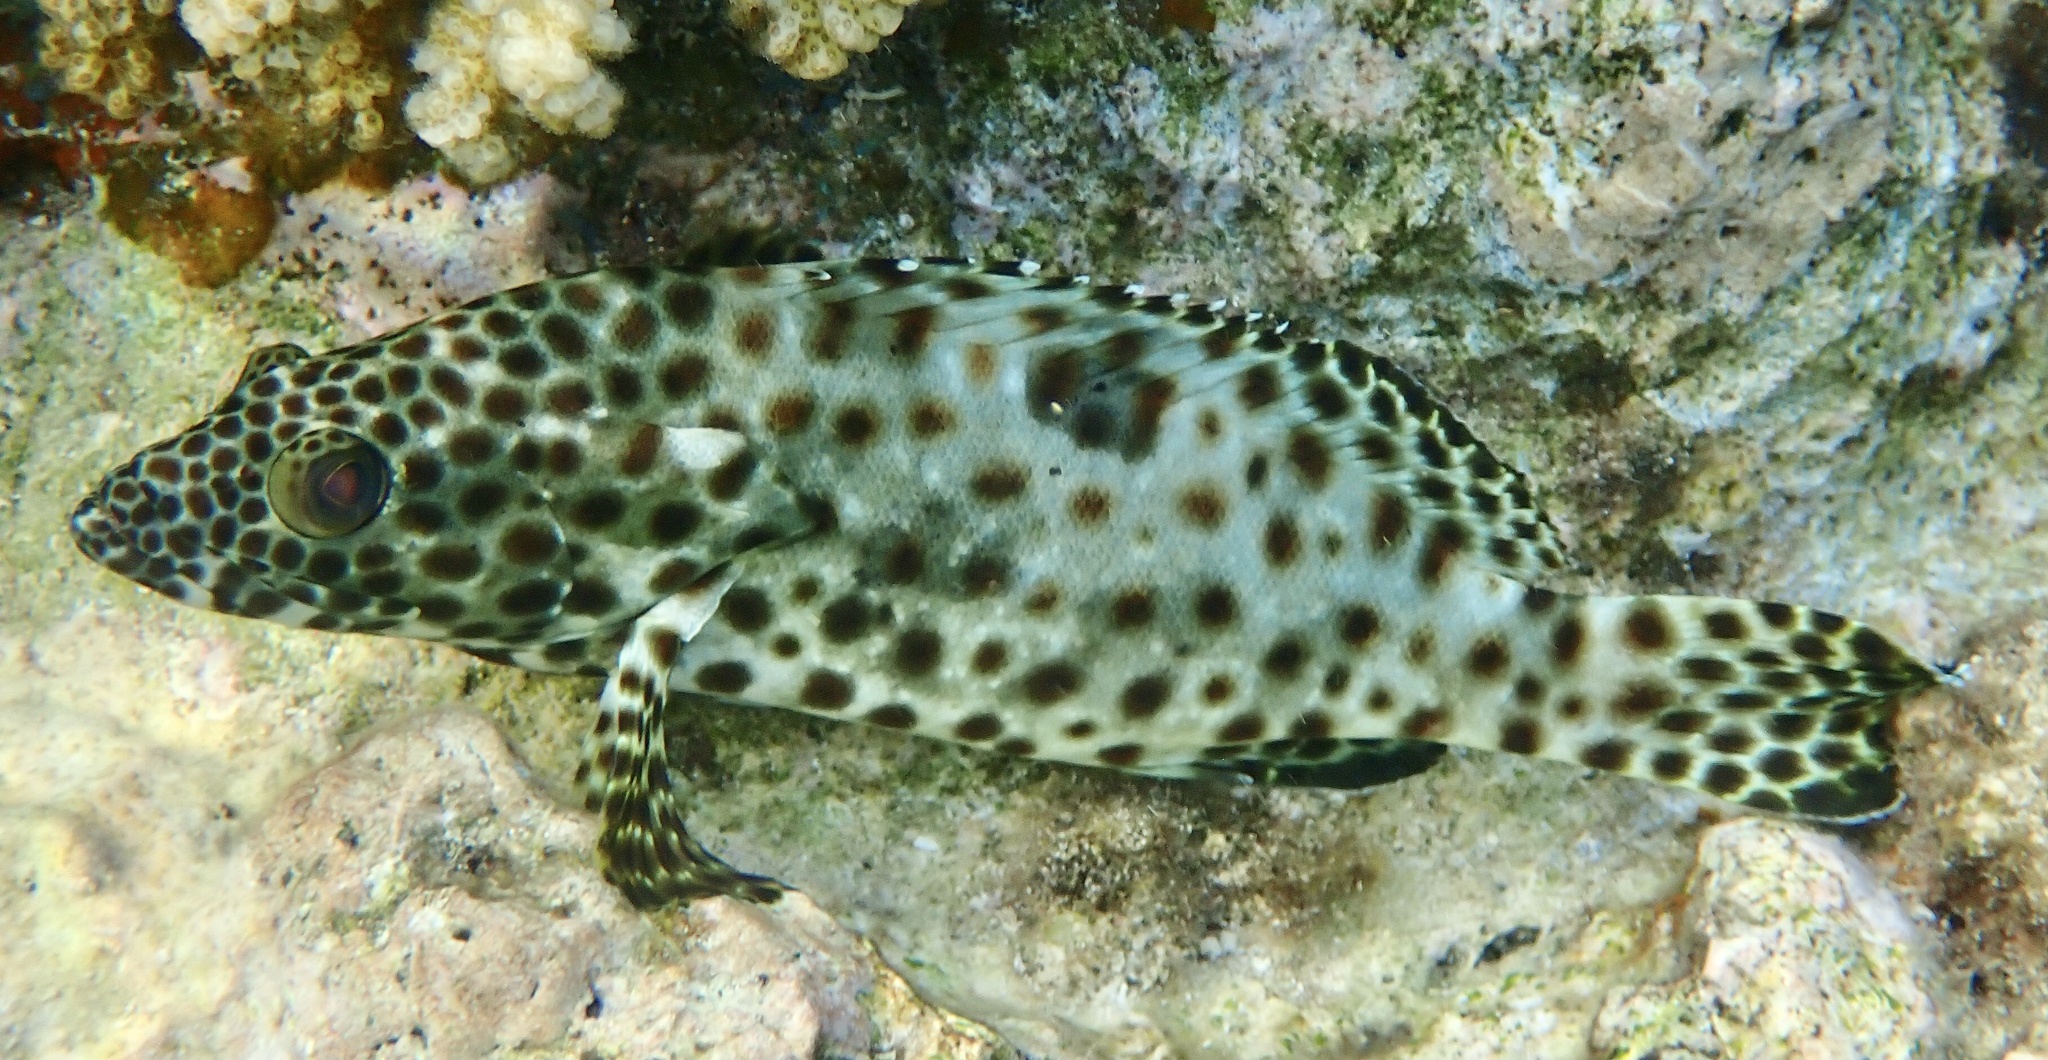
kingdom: Animalia
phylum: Chordata
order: Perciformes
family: Serranidae
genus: Epinephelus
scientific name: Epinephelus tauvina
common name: Greasy grouper
